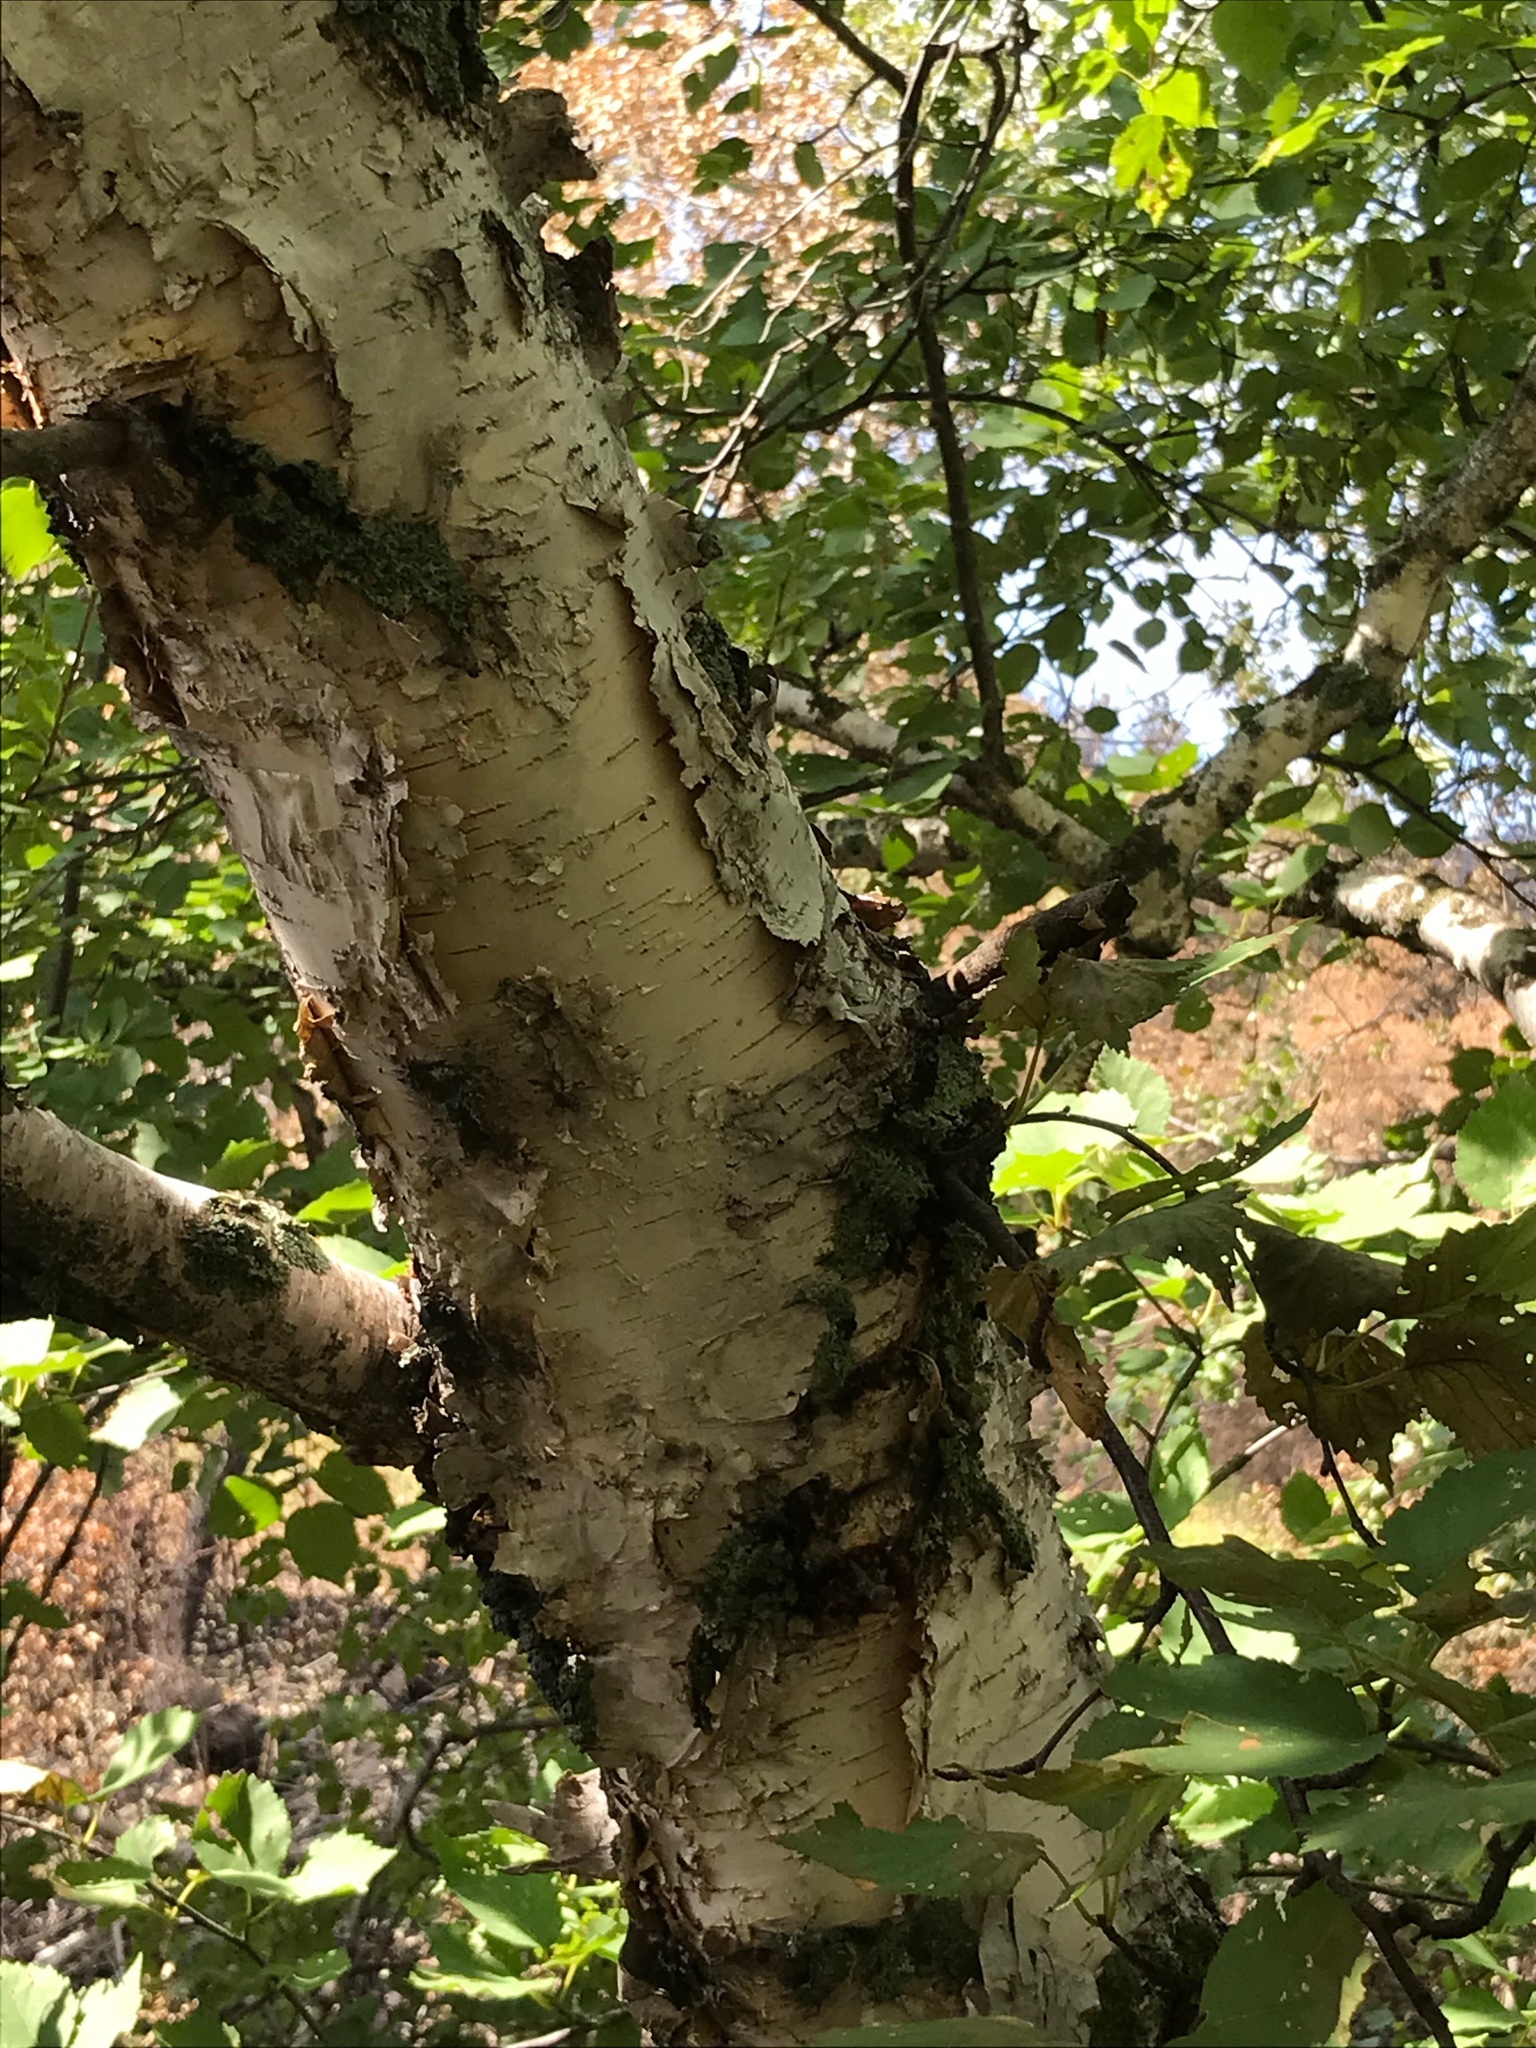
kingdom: Plantae
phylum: Tracheophyta
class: Magnoliopsida
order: Fagales
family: Betulaceae
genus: Betula
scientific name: Betula papyrifera
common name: Paper birch
